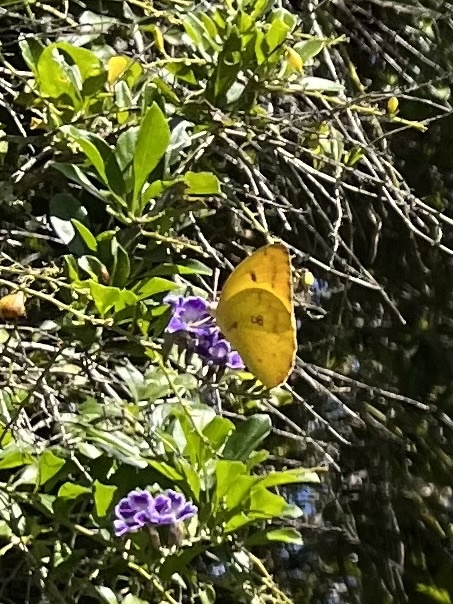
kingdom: Animalia
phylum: Arthropoda
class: Insecta
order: Lepidoptera
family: Pieridae
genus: Catopsilia
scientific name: Catopsilia florella
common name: African migrant
